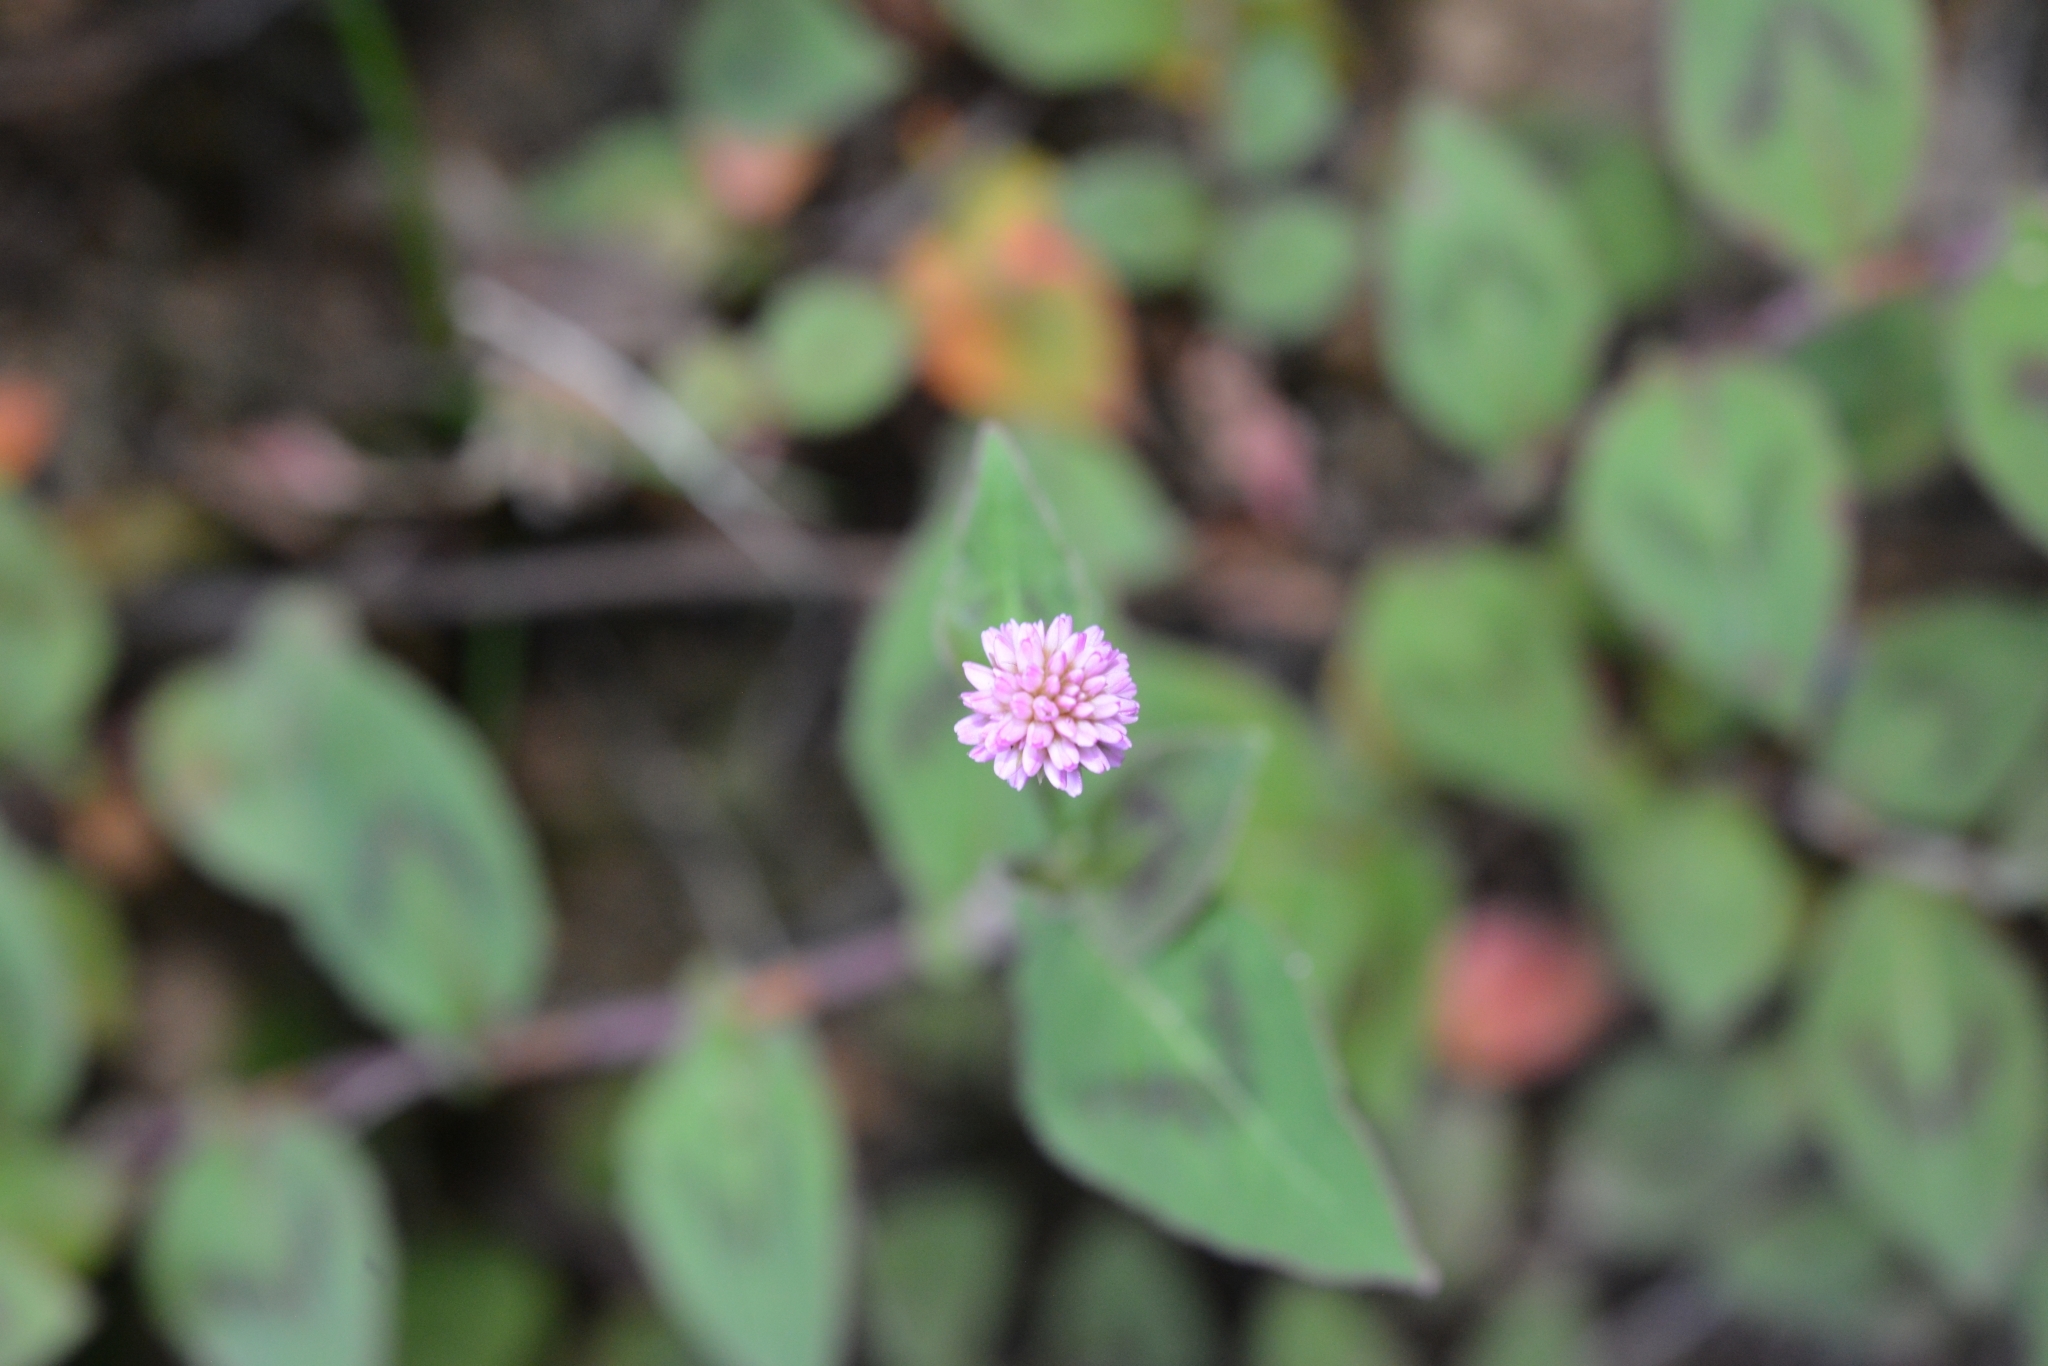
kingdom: Plantae
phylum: Tracheophyta
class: Magnoliopsida
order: Caryophyllales
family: Polygonaceae
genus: Persicaria
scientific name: Persicaria capitata
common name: Pinkhead smartweed
